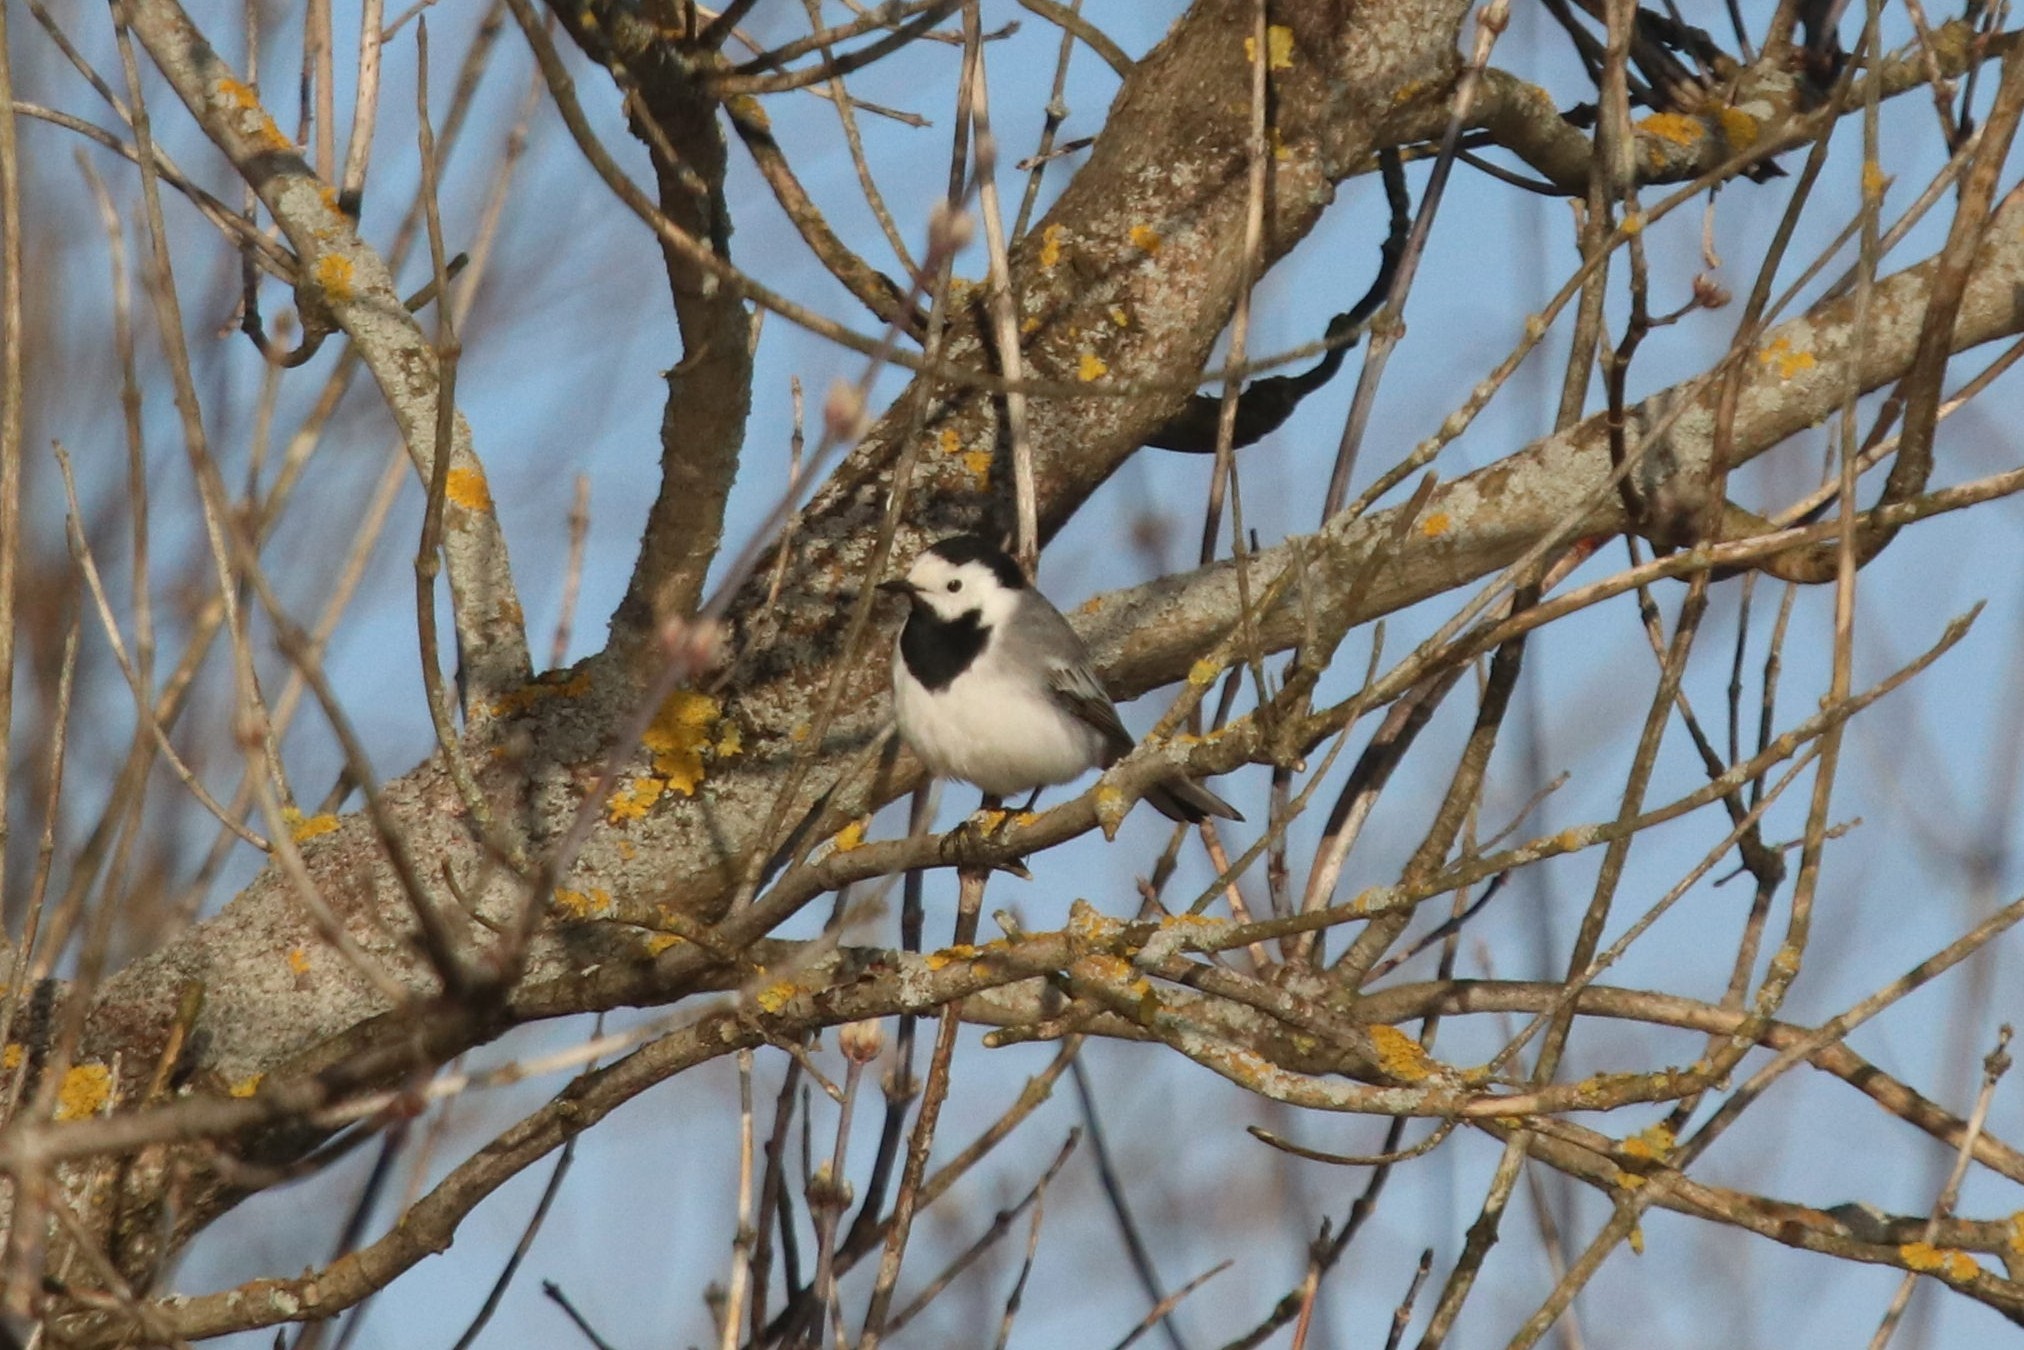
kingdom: Animalia
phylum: Chordata
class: Aves
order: Passeriformes
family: Motacillidae
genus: Motacilla
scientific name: Motacilla alba
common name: White wagtail
